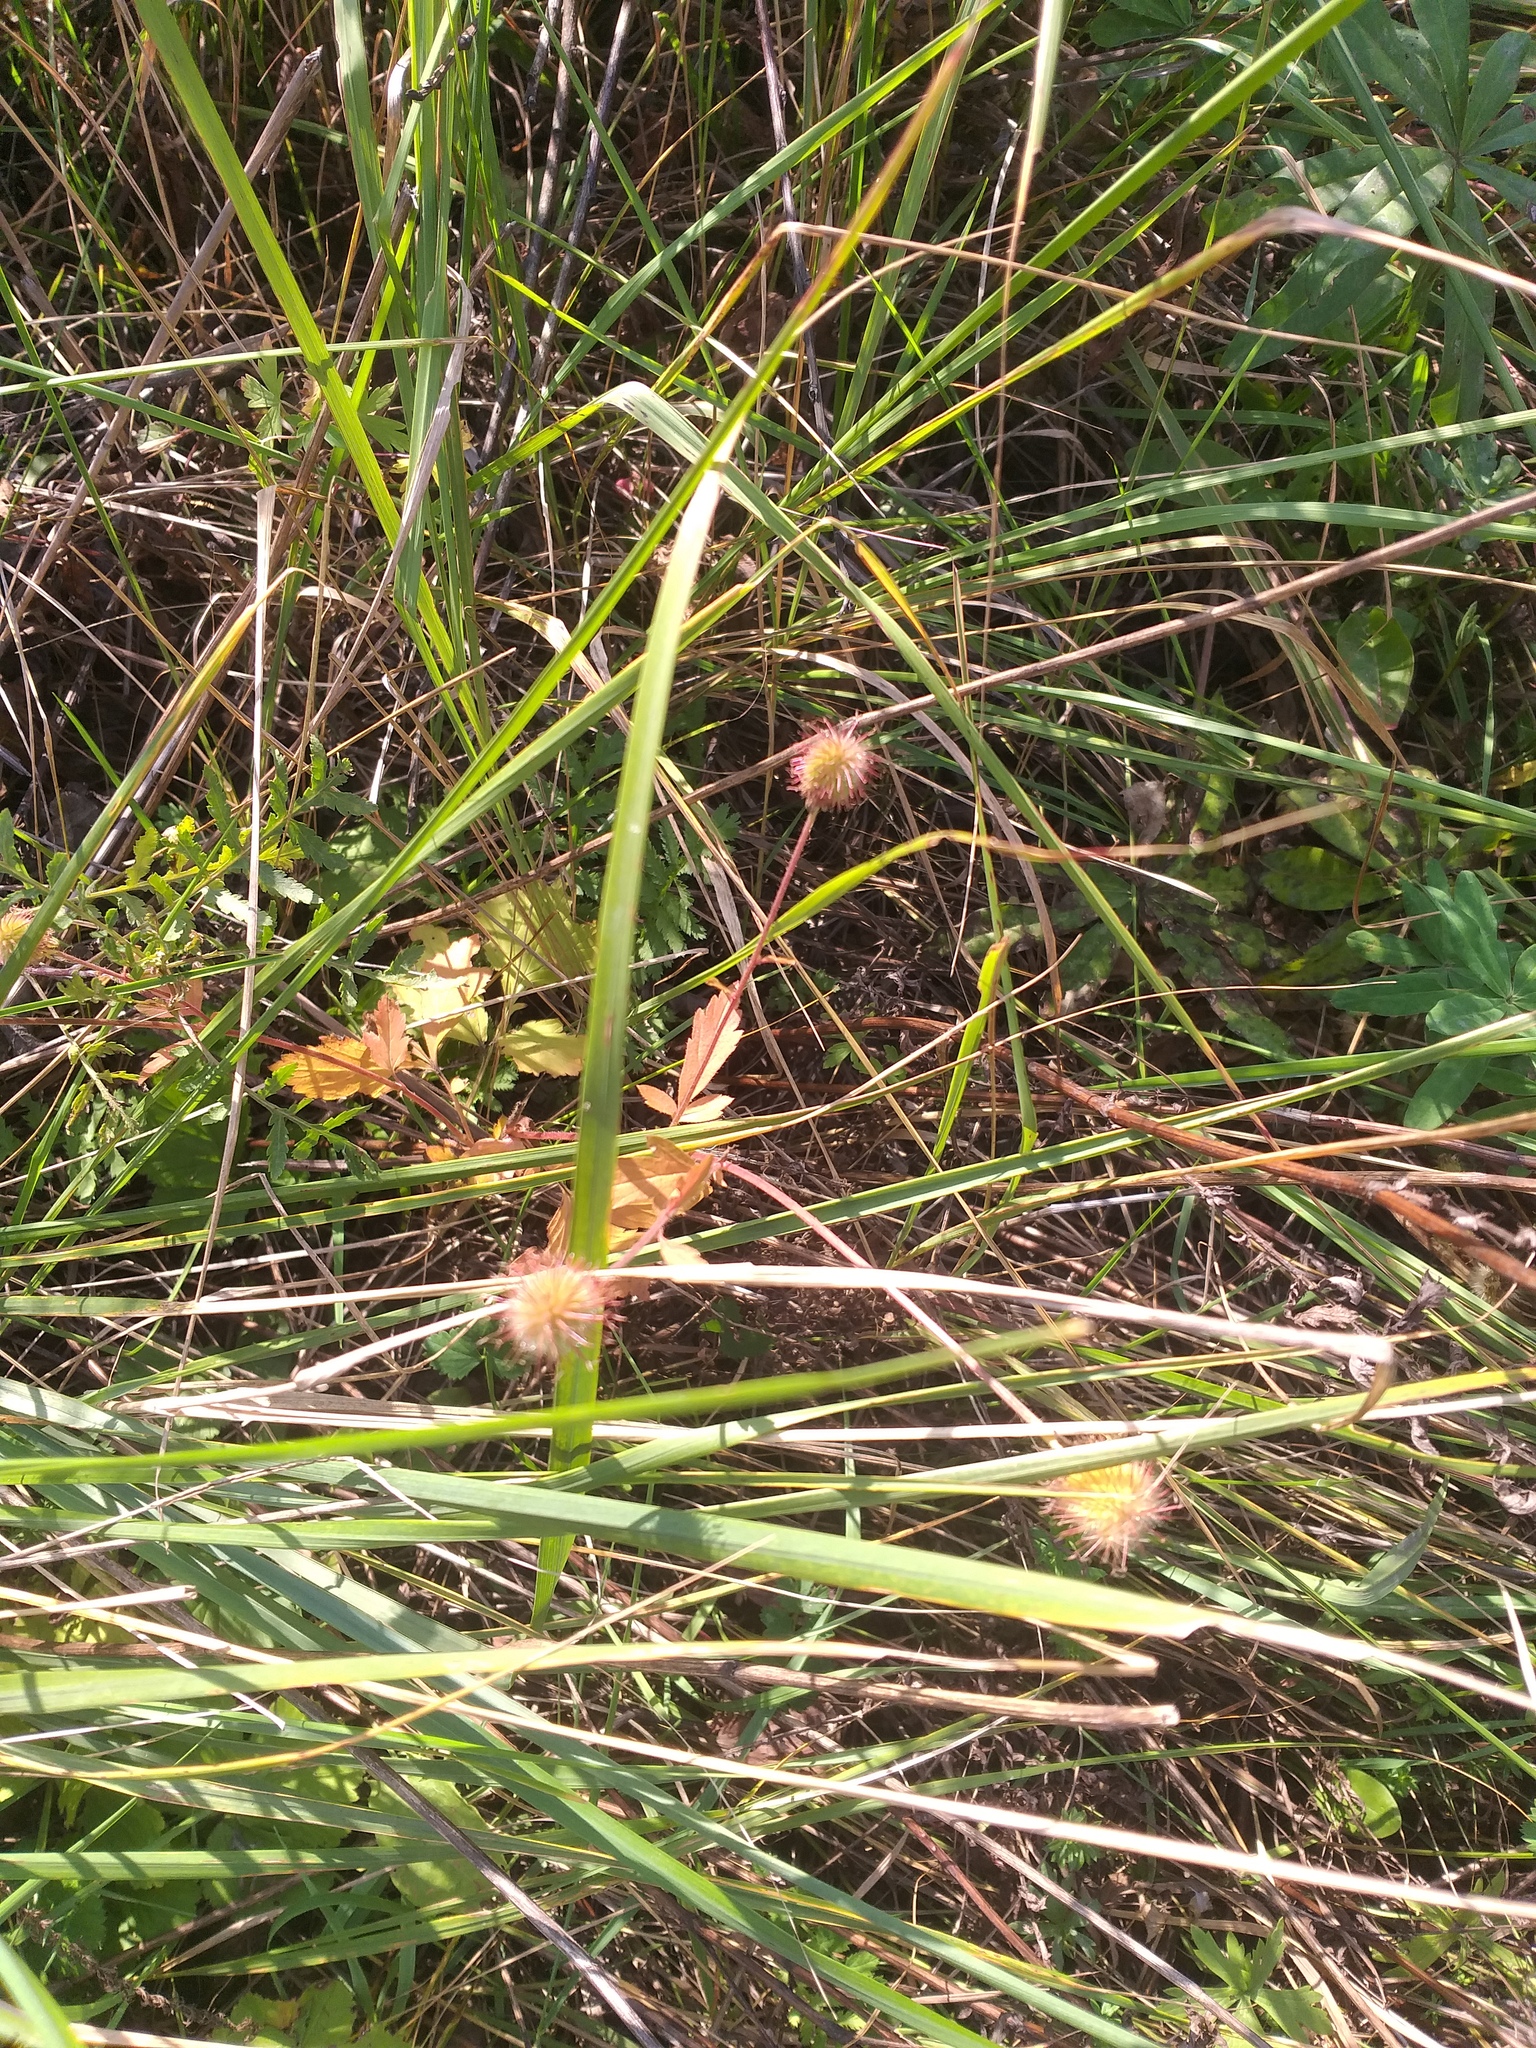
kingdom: Plantae
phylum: Tracheophyta
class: Magnoliopsida
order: Rosales
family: Rosaceae
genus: Geum
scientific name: Geum aleppicum
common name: Yellow avens
